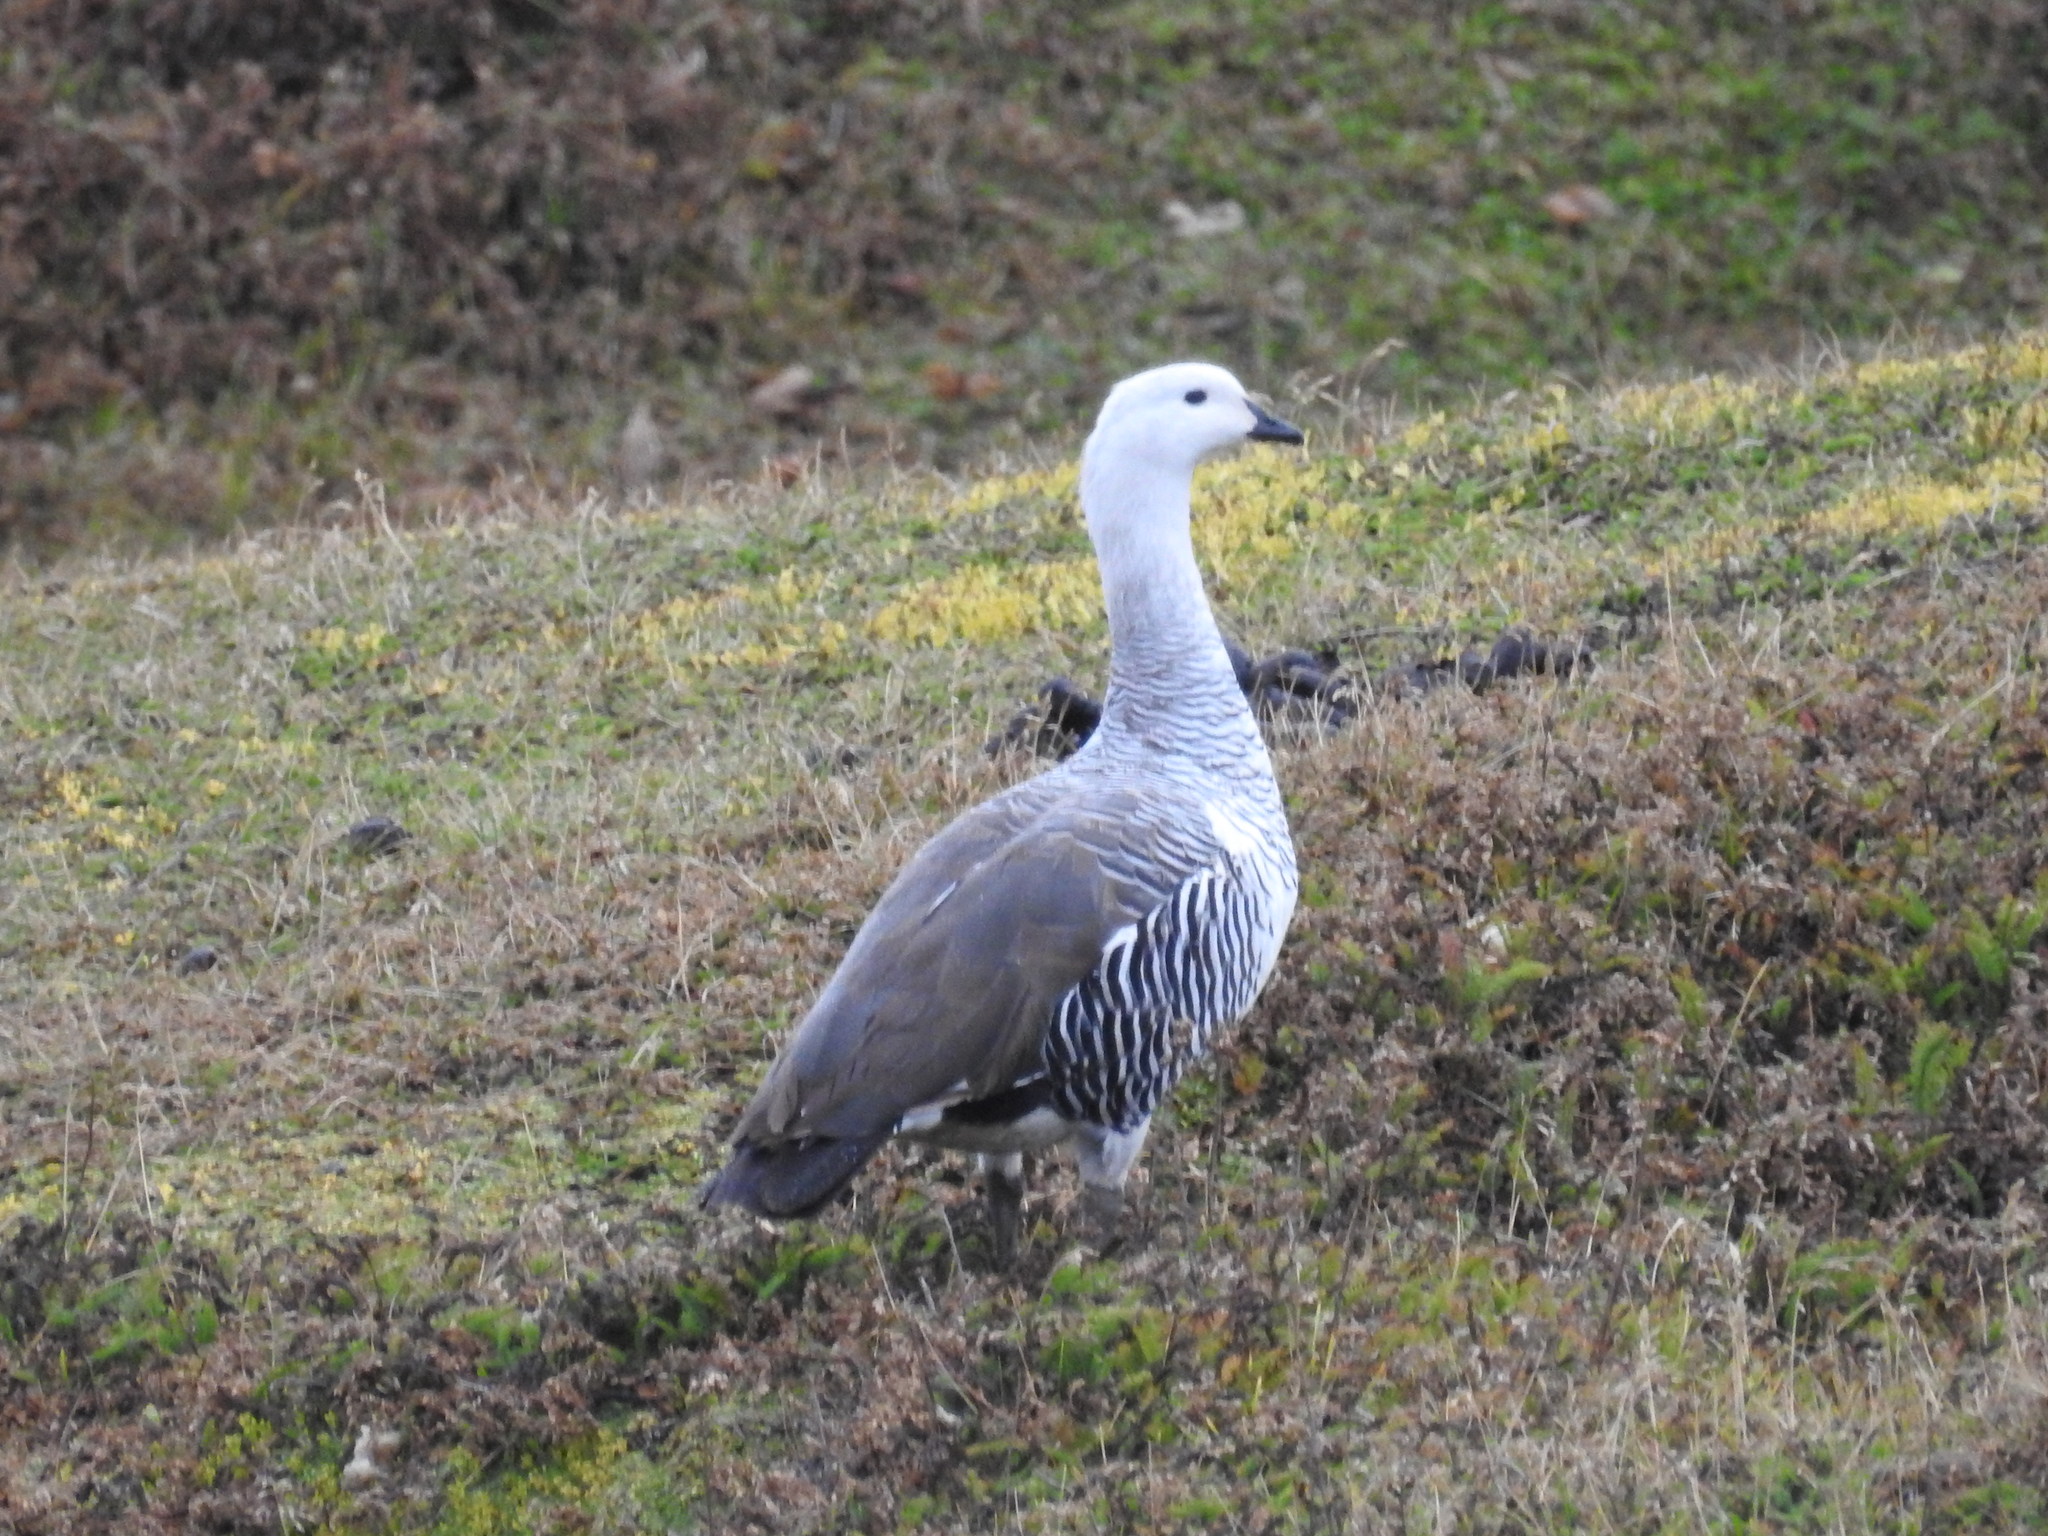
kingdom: Animalia
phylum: Chordata
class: Aves
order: Anseriformes
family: Anatidae
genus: Chloephaga
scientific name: Chloephaga picta
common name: Upland goose
